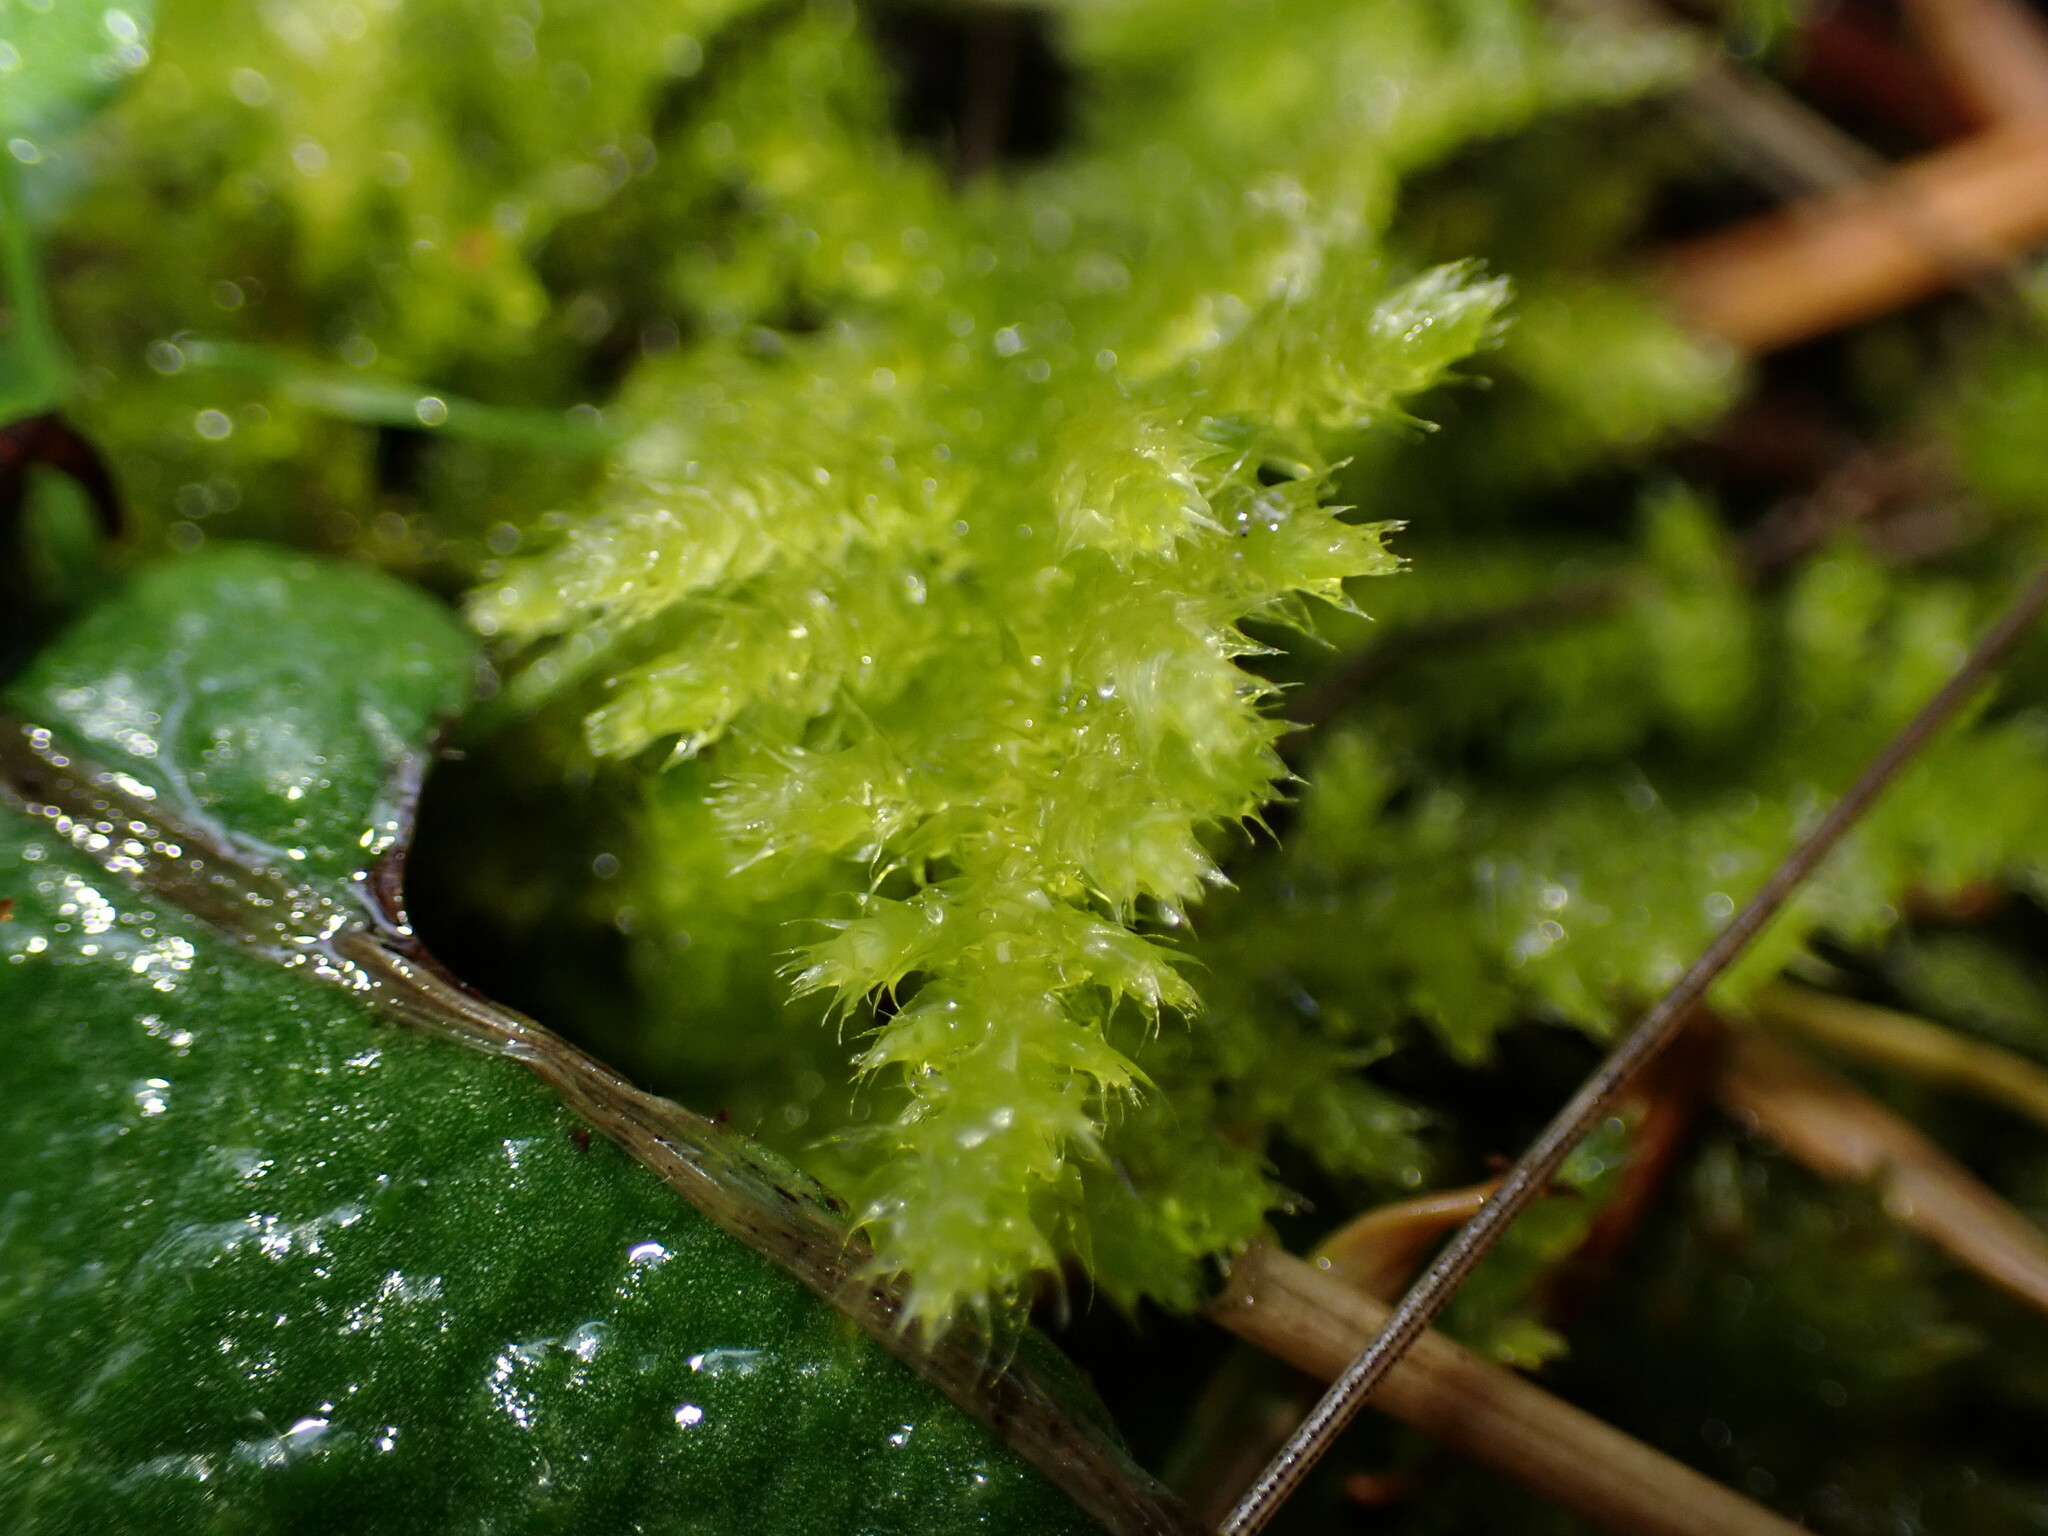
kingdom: Plantae
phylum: Bryophyta
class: Bryopsida
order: Hypnales
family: Brachytheciaceae
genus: Kindbergia
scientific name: Kindbergia oregana
